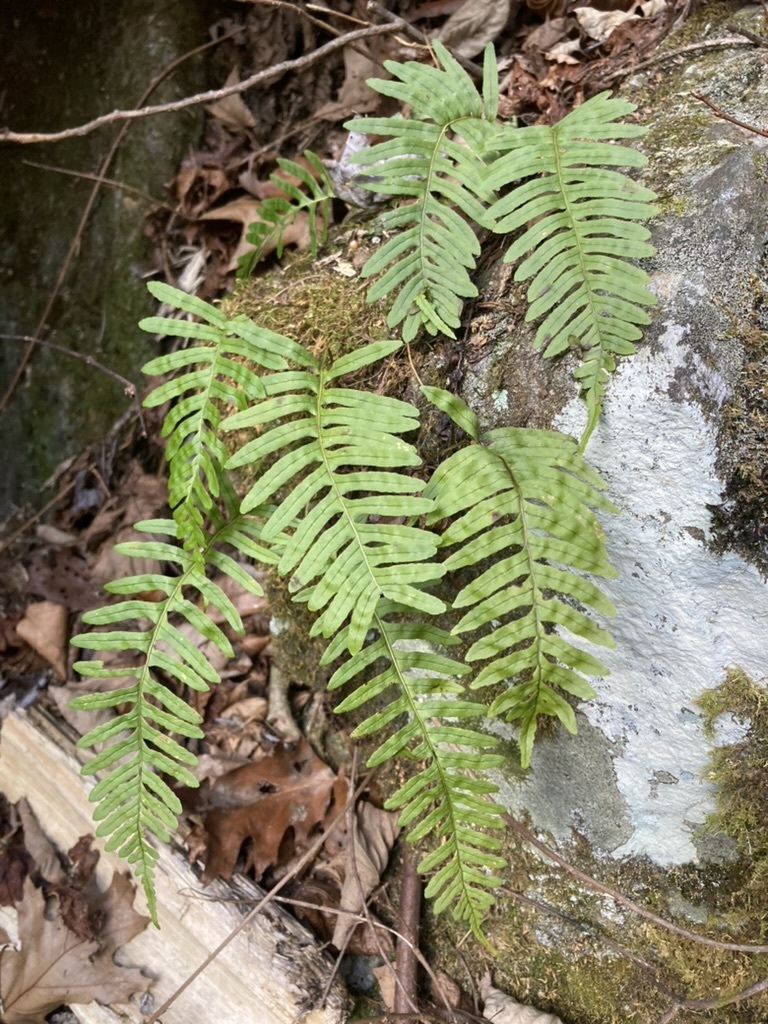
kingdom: Plantae
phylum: Tracheophyta
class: Polypodiopsida
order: Polypodiales
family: Polypodiaceae
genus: Polypodium
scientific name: Polypodium appalachianum
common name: Appalachian polypody
